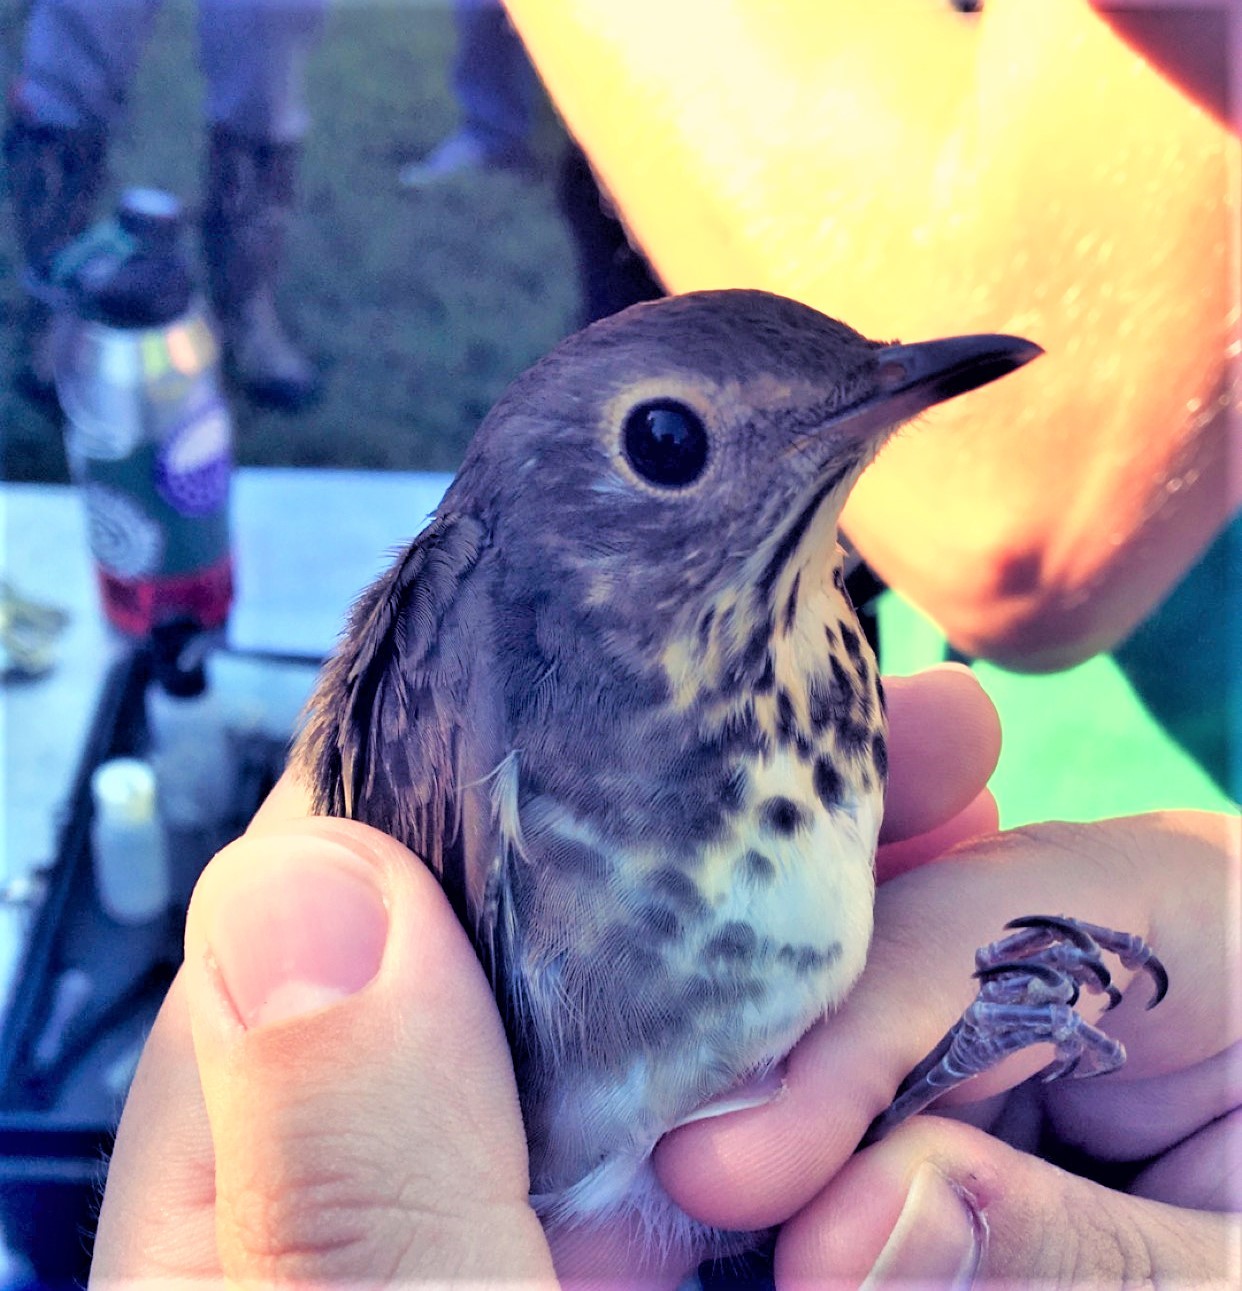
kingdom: Animalia
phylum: Chordata
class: Aves
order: Passeriformes
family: Turdidae
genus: Catharus
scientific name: Catharus ustulatus
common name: Swainson's thrush
